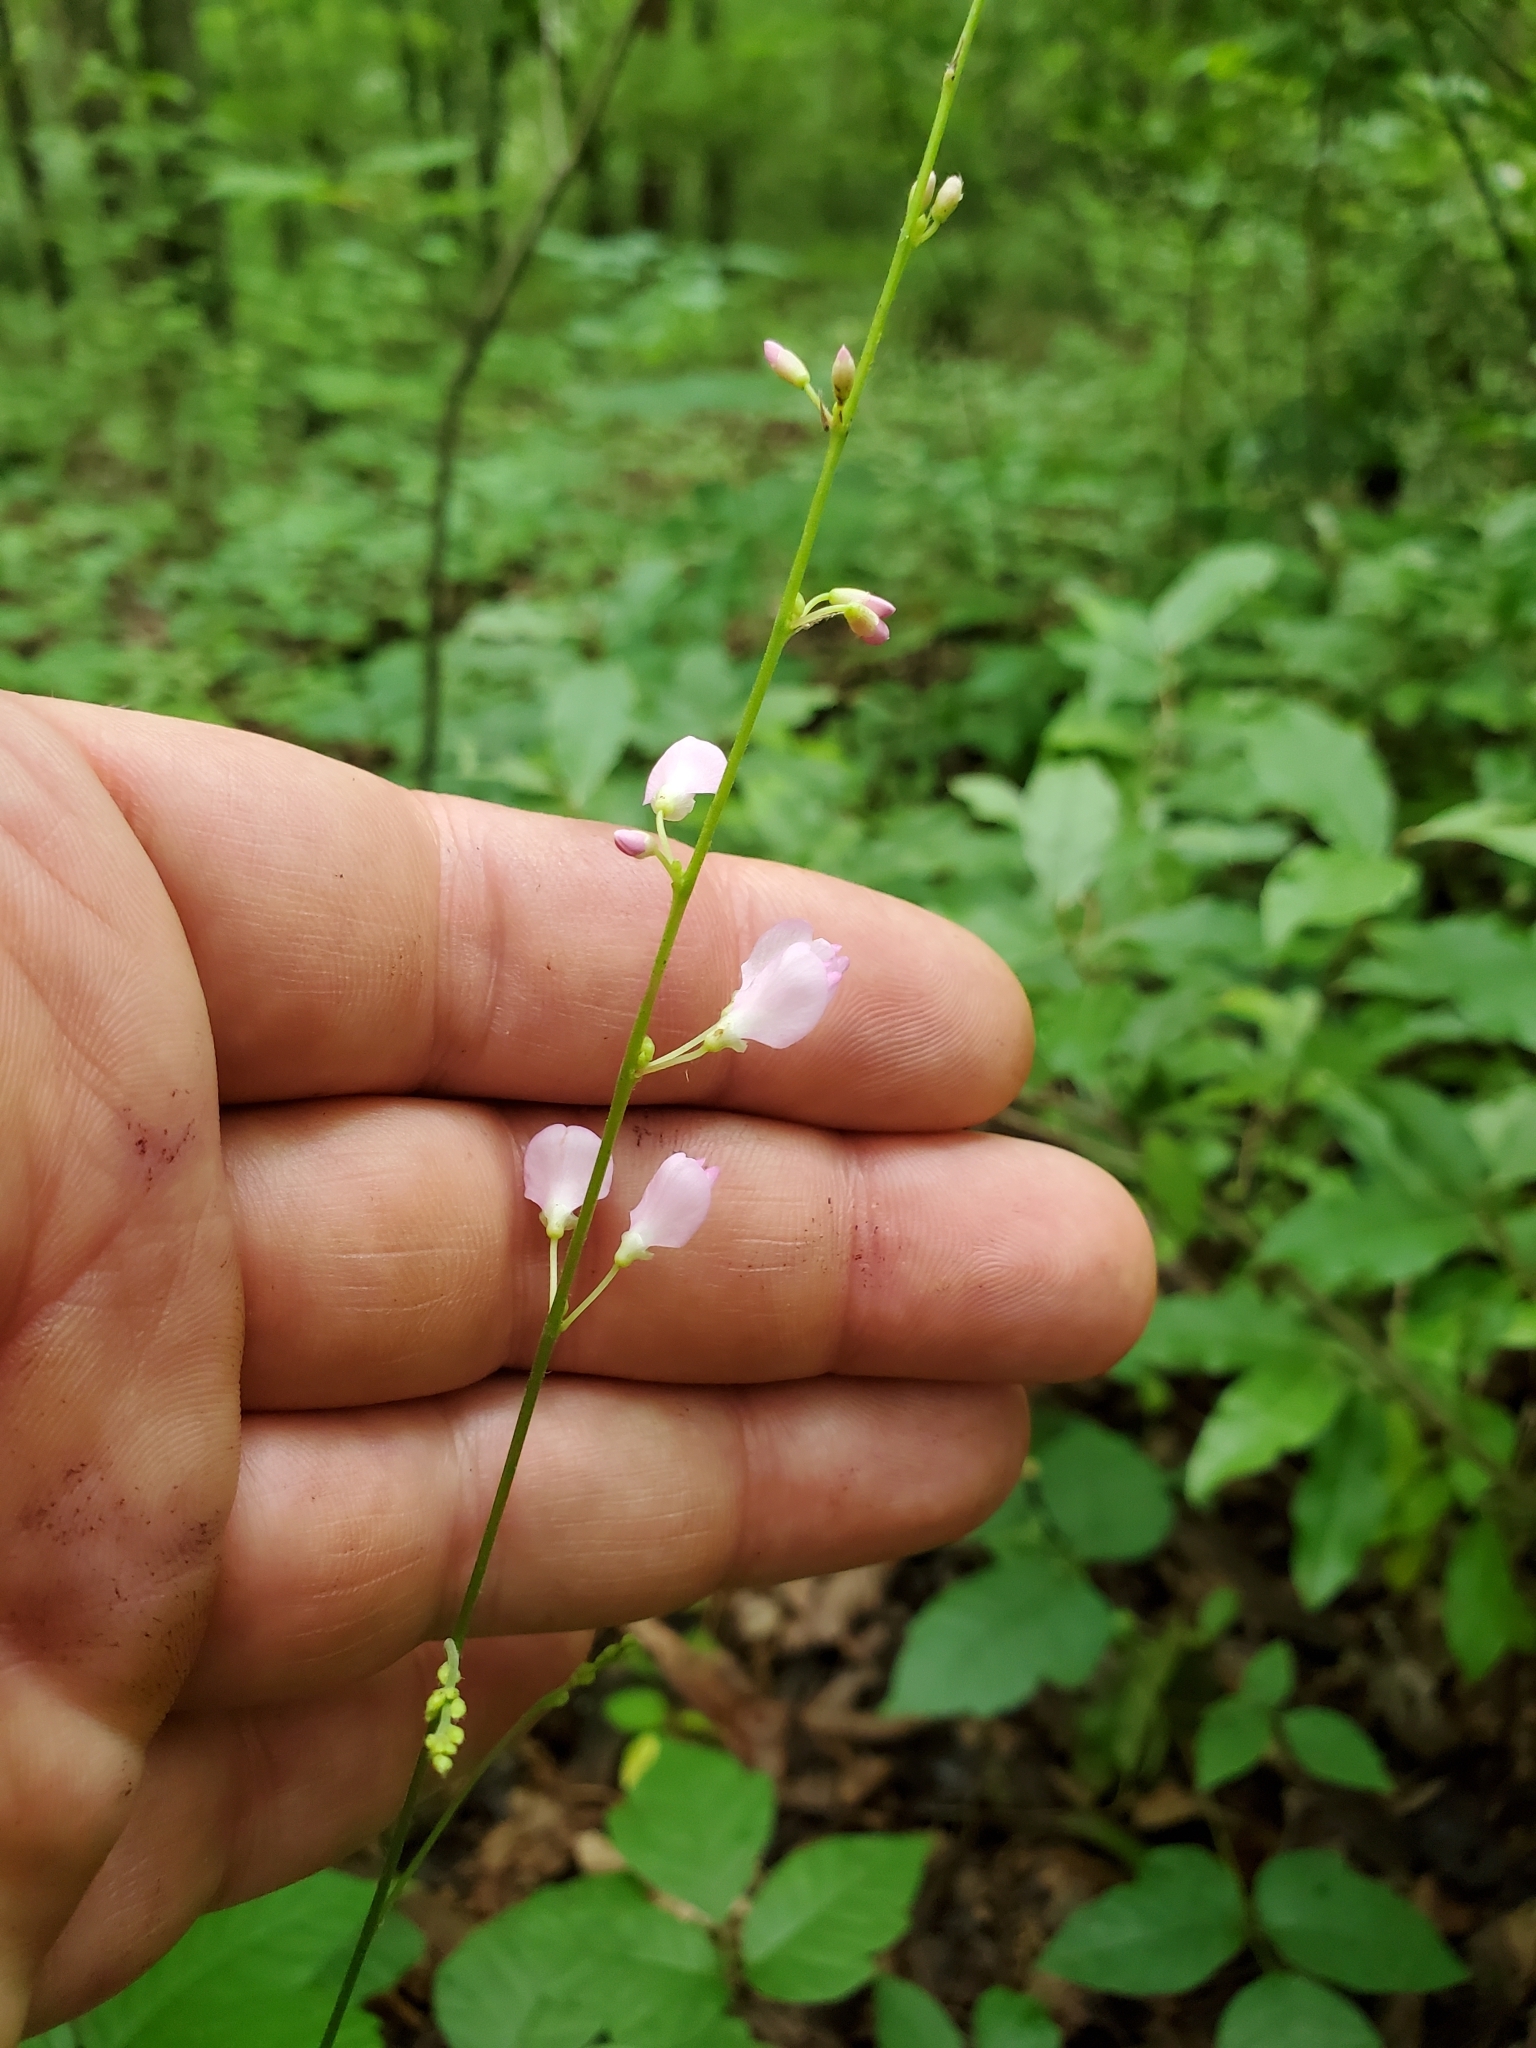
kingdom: Plantae
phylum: Tracheophyta
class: Magnoliopsida
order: Fabales
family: Fabaceae
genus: Hylodesmum
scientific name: Hylodesmum glutinosum
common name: Clustered-leaved tick-trefoil
